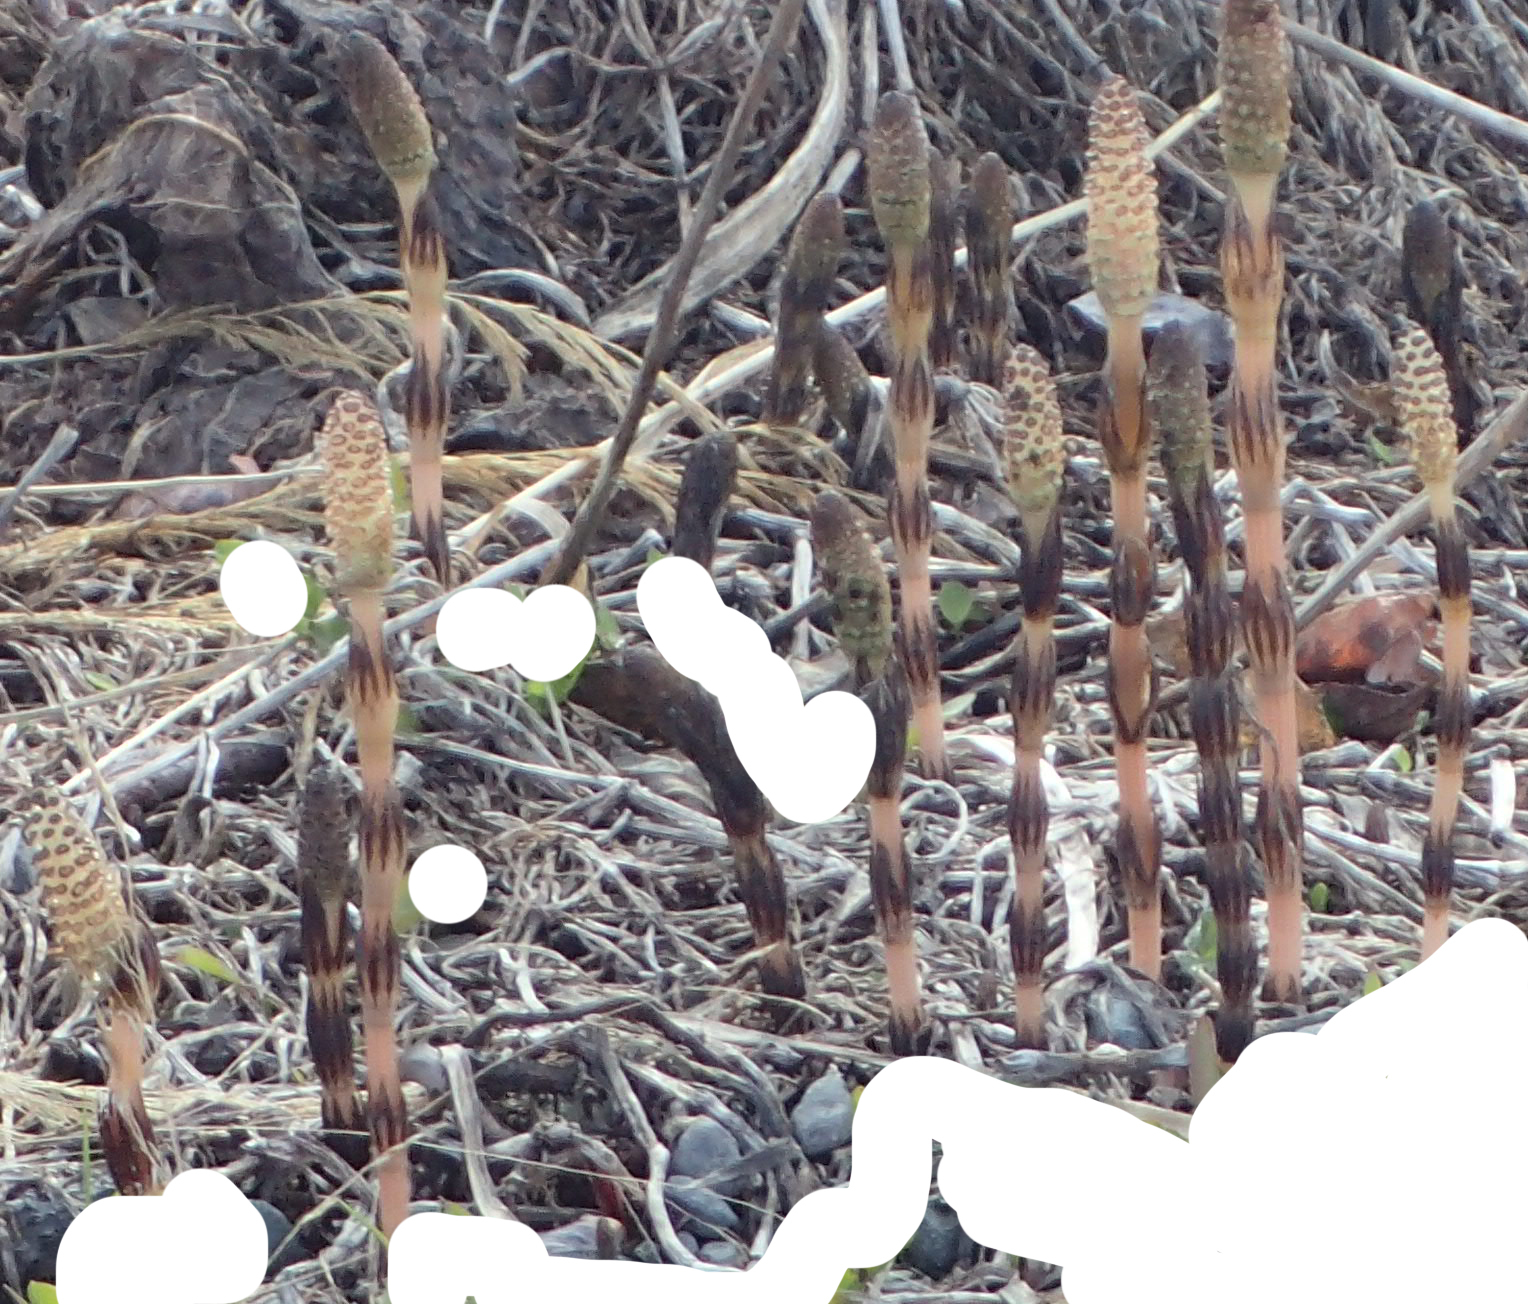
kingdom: Plantae
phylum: Tracheophyta
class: Polypodiopsida
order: Equisetales
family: Equisetaceae
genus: Equisetum
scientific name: Equisetum arvense
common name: Field horsetail
